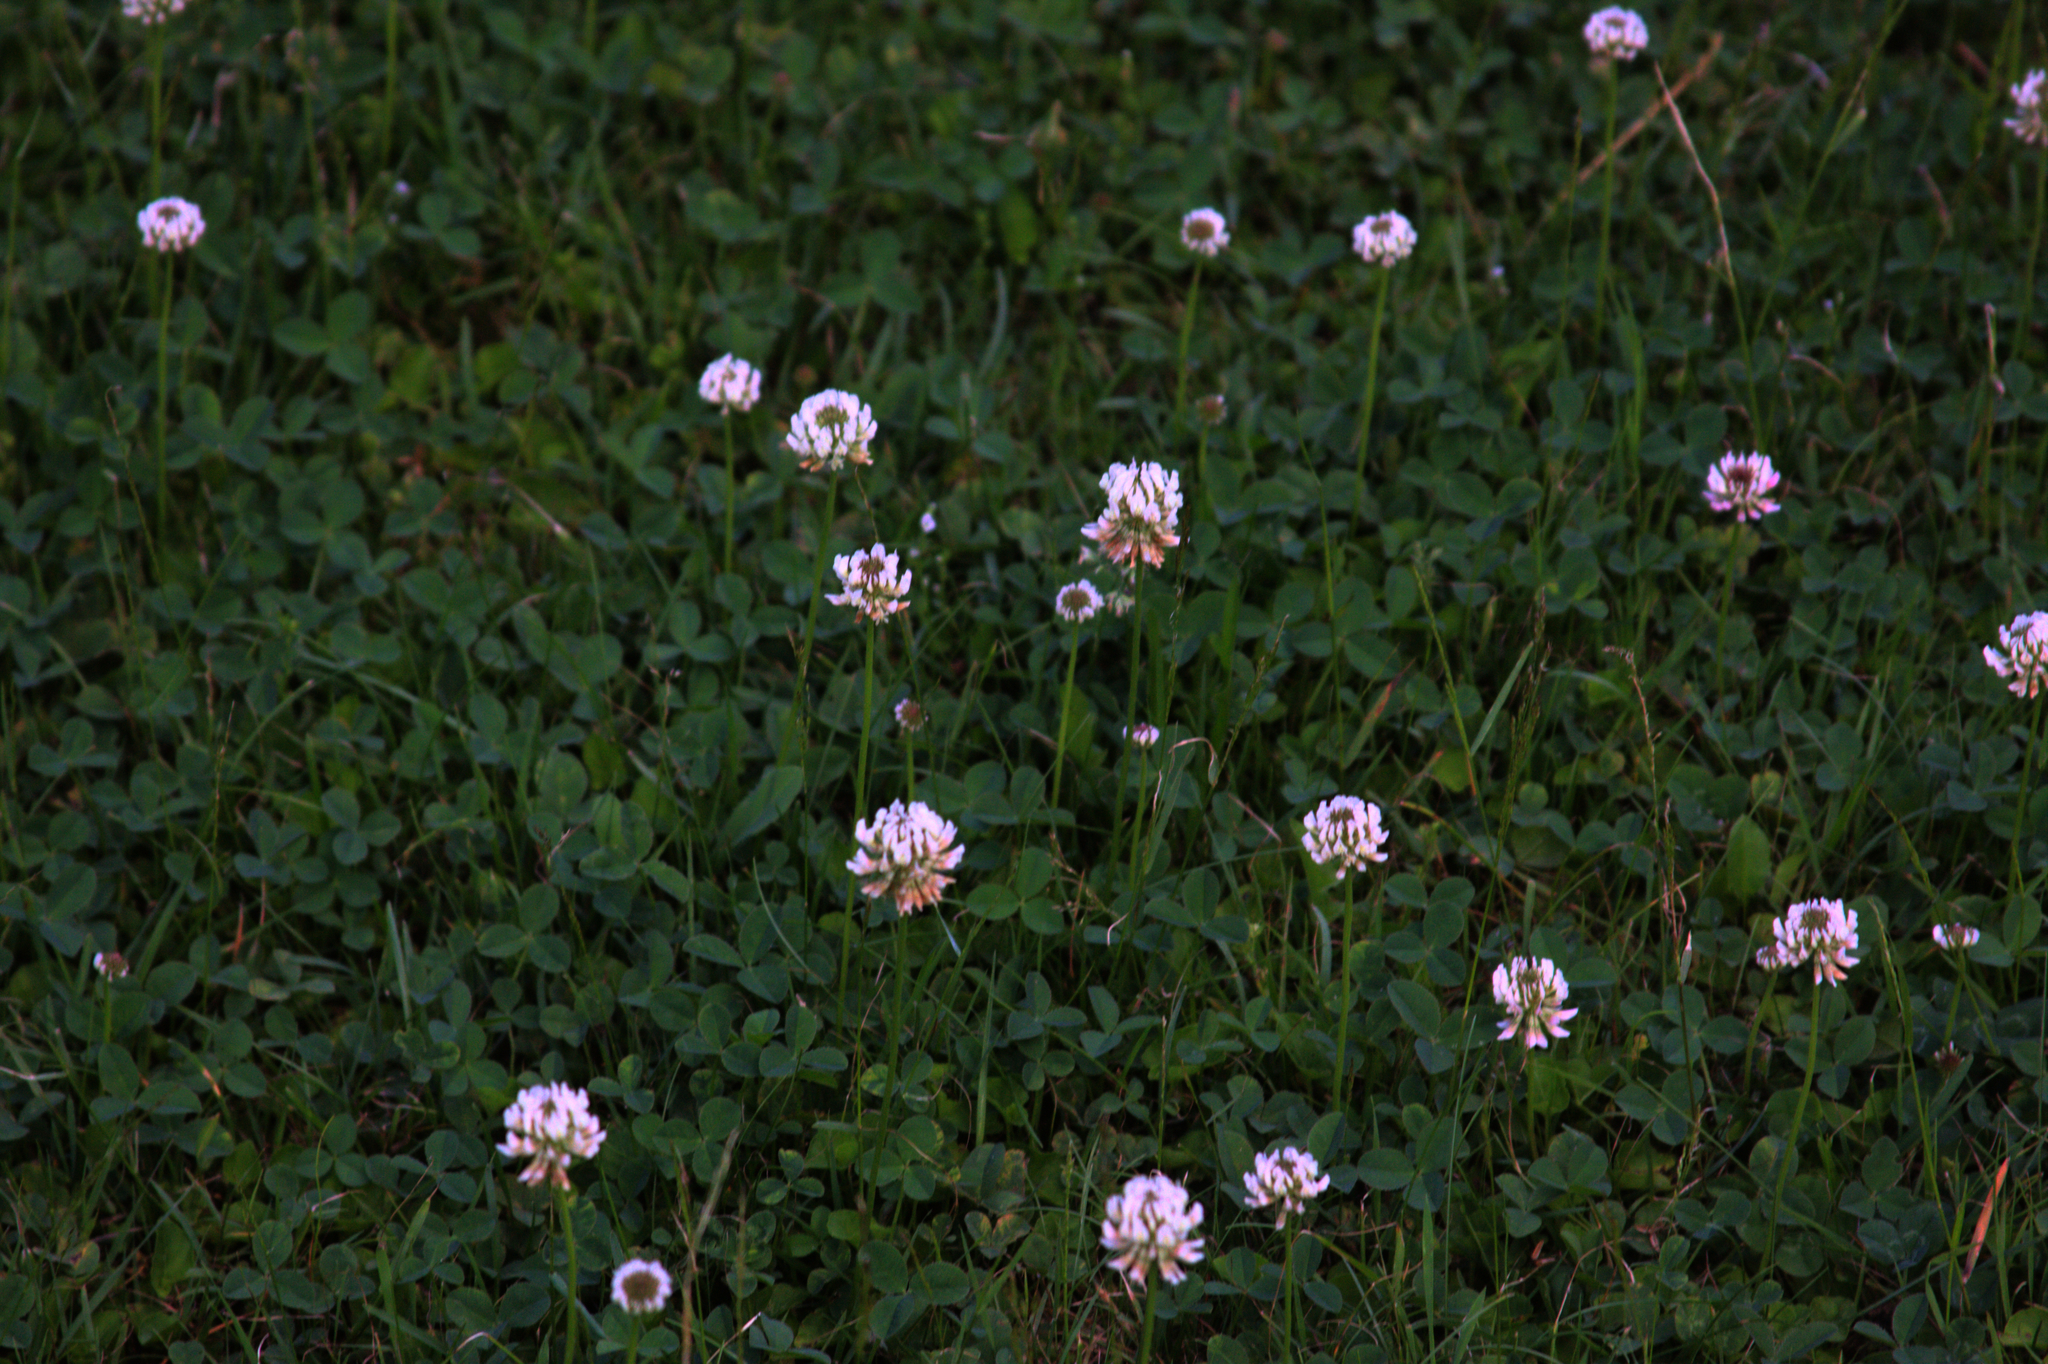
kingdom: Plantae
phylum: Tracheophyta
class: Magnoliopsida
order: Fabales
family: Fabaceae
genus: Trifolium
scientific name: Trifolium repens
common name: White clover
